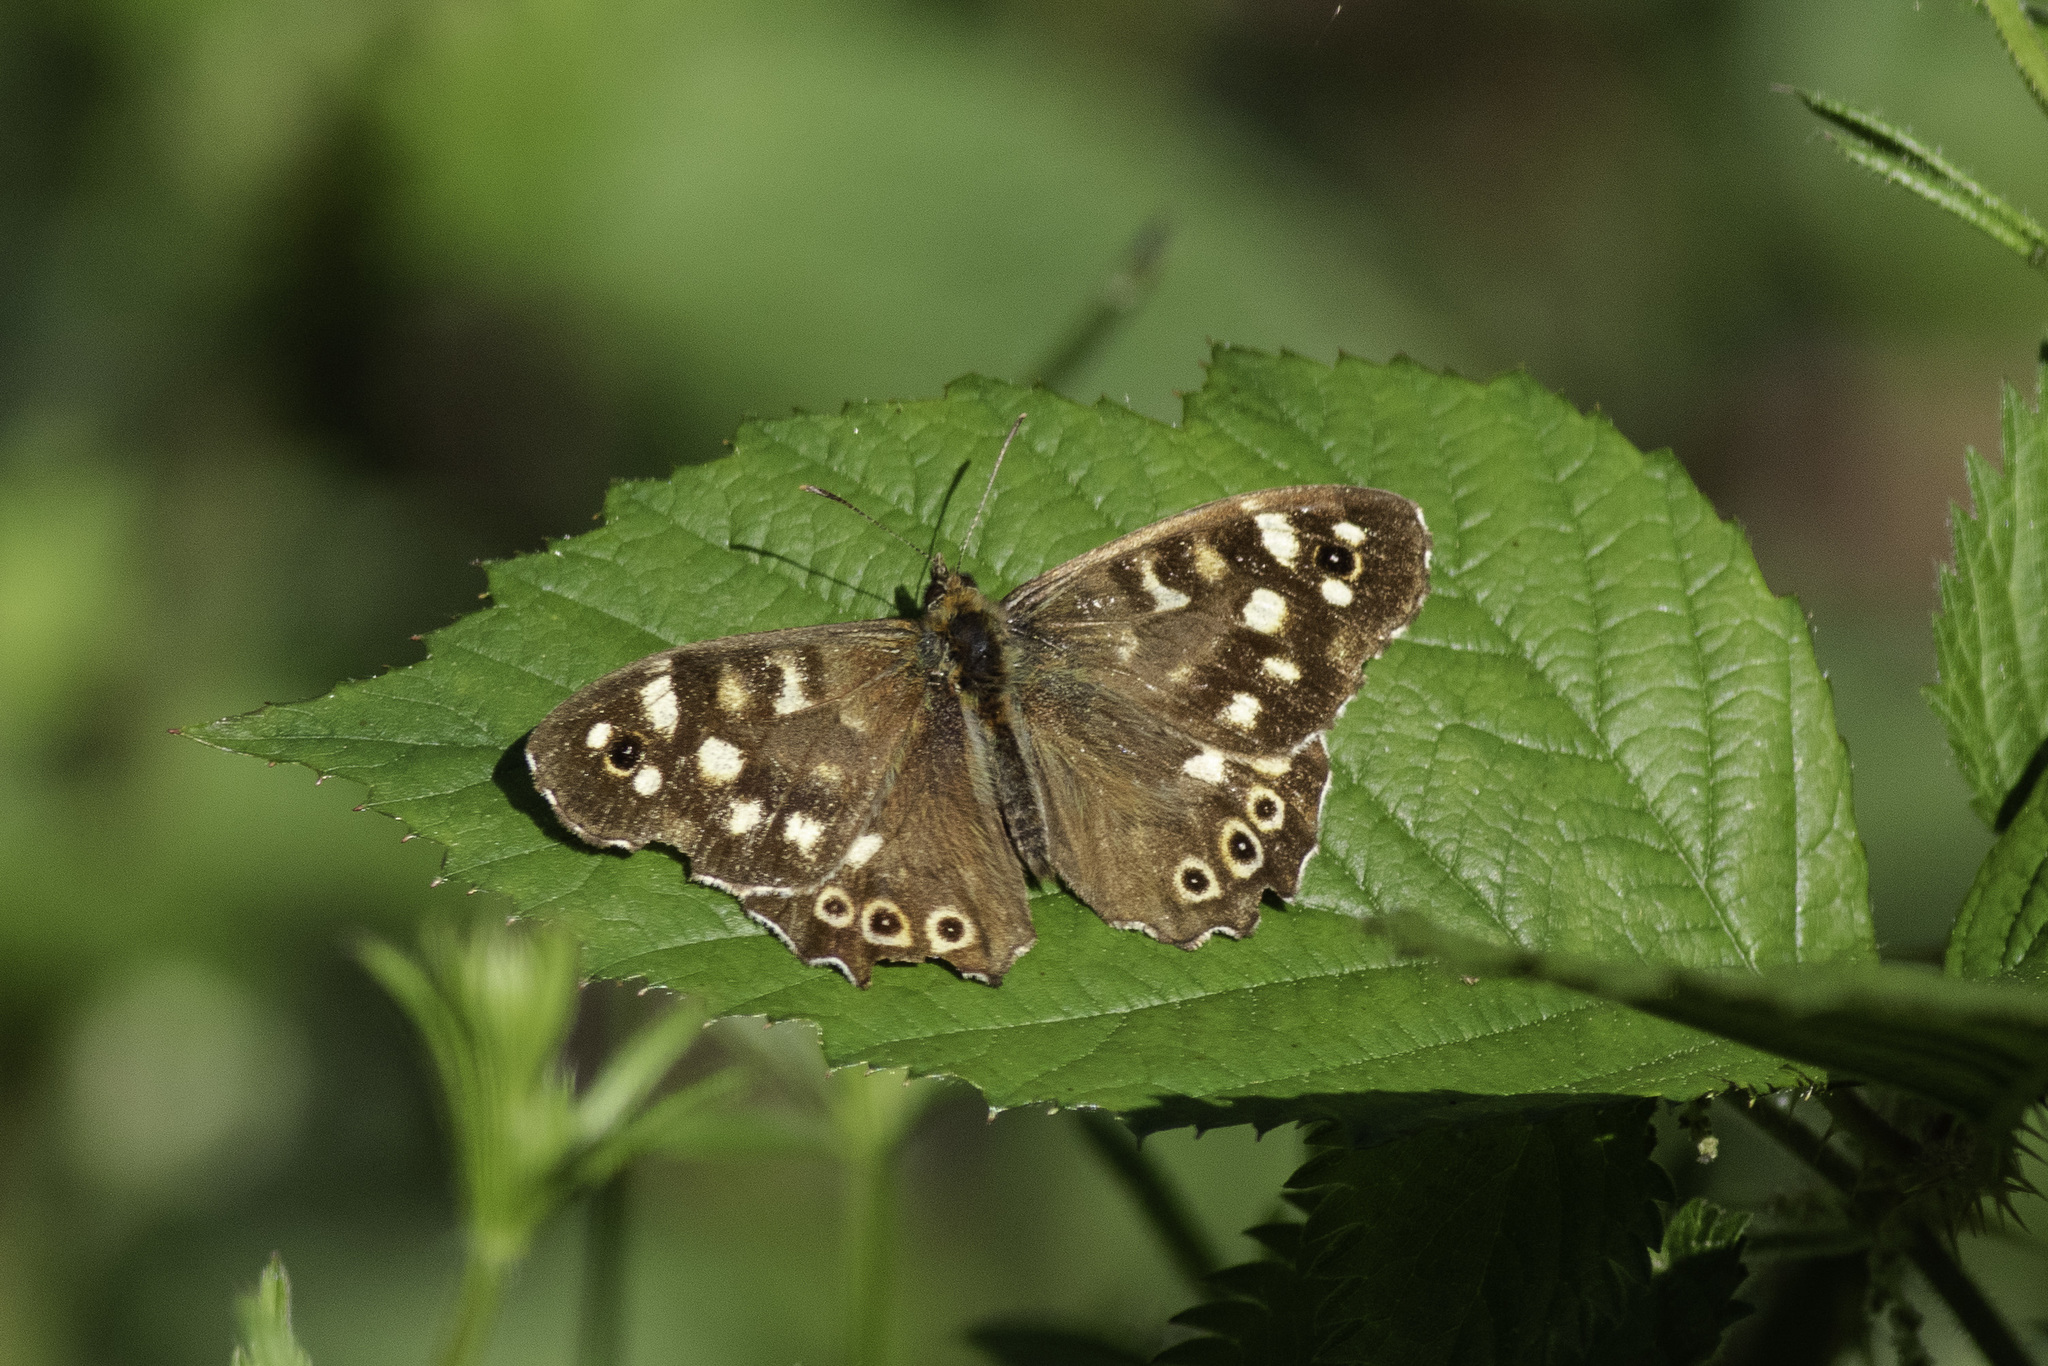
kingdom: Animalia
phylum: Arthropoda
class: Insecta
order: Lepidoptera
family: Nymphalidae
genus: Pararge
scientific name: Pararge aegeria
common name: Speckled wood
